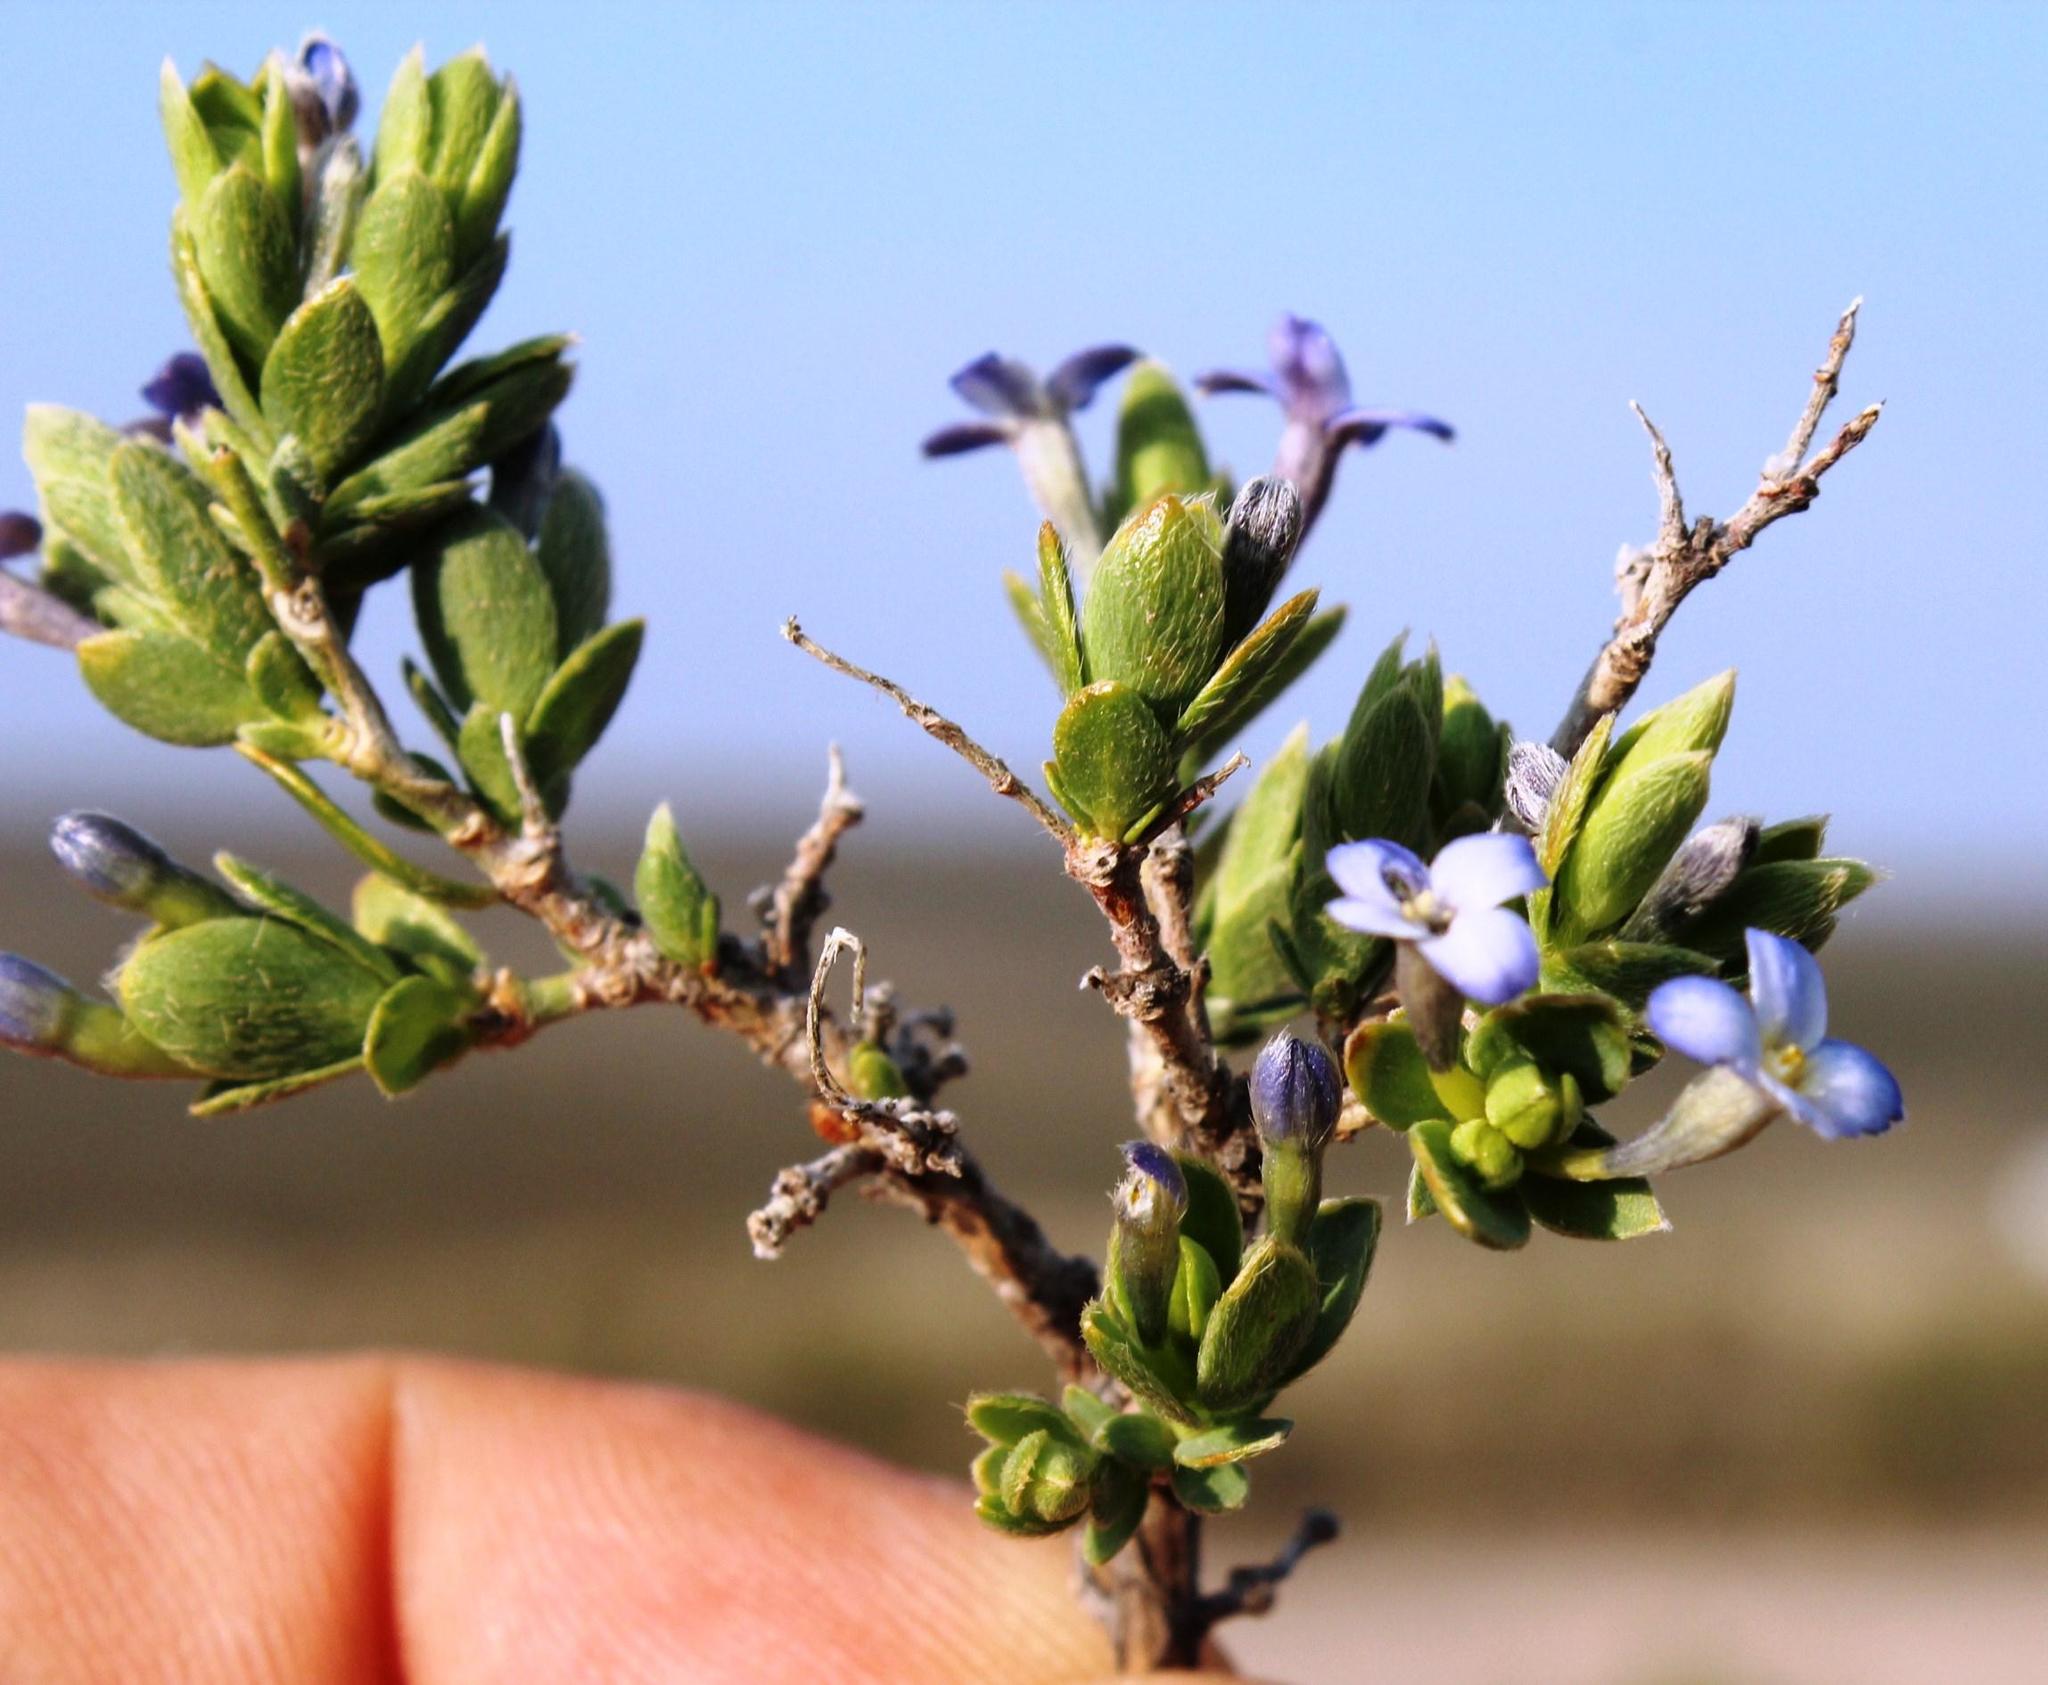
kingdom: Plantae
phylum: Tracheophyta
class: Magnoliopsida
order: Malvales
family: Thymelaeaceae
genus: Gnidia
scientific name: Gnidia cyanea
